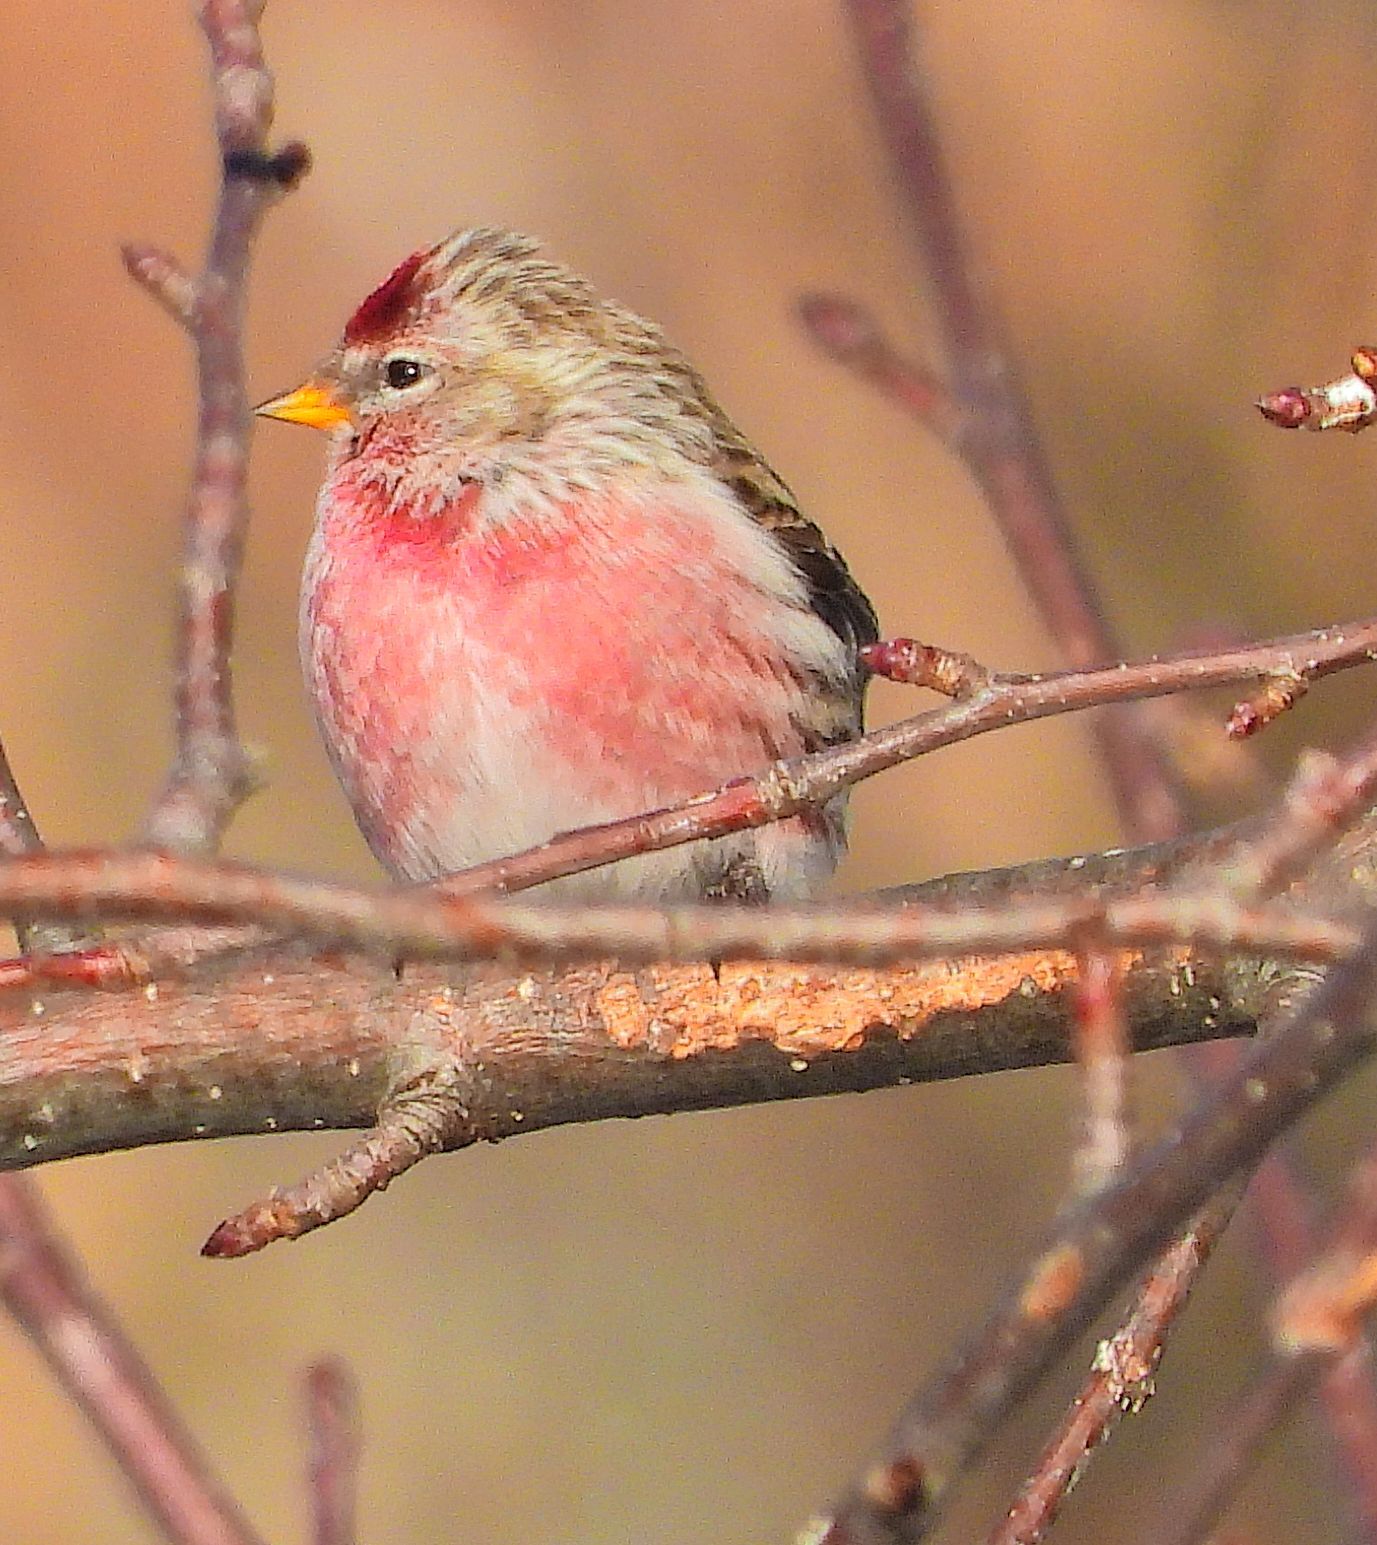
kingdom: Animalia
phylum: Chordata
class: Aves
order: Passeriformes
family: Fringillidae
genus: Acanthis
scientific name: Acanthis flammea
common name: Common redpoll
